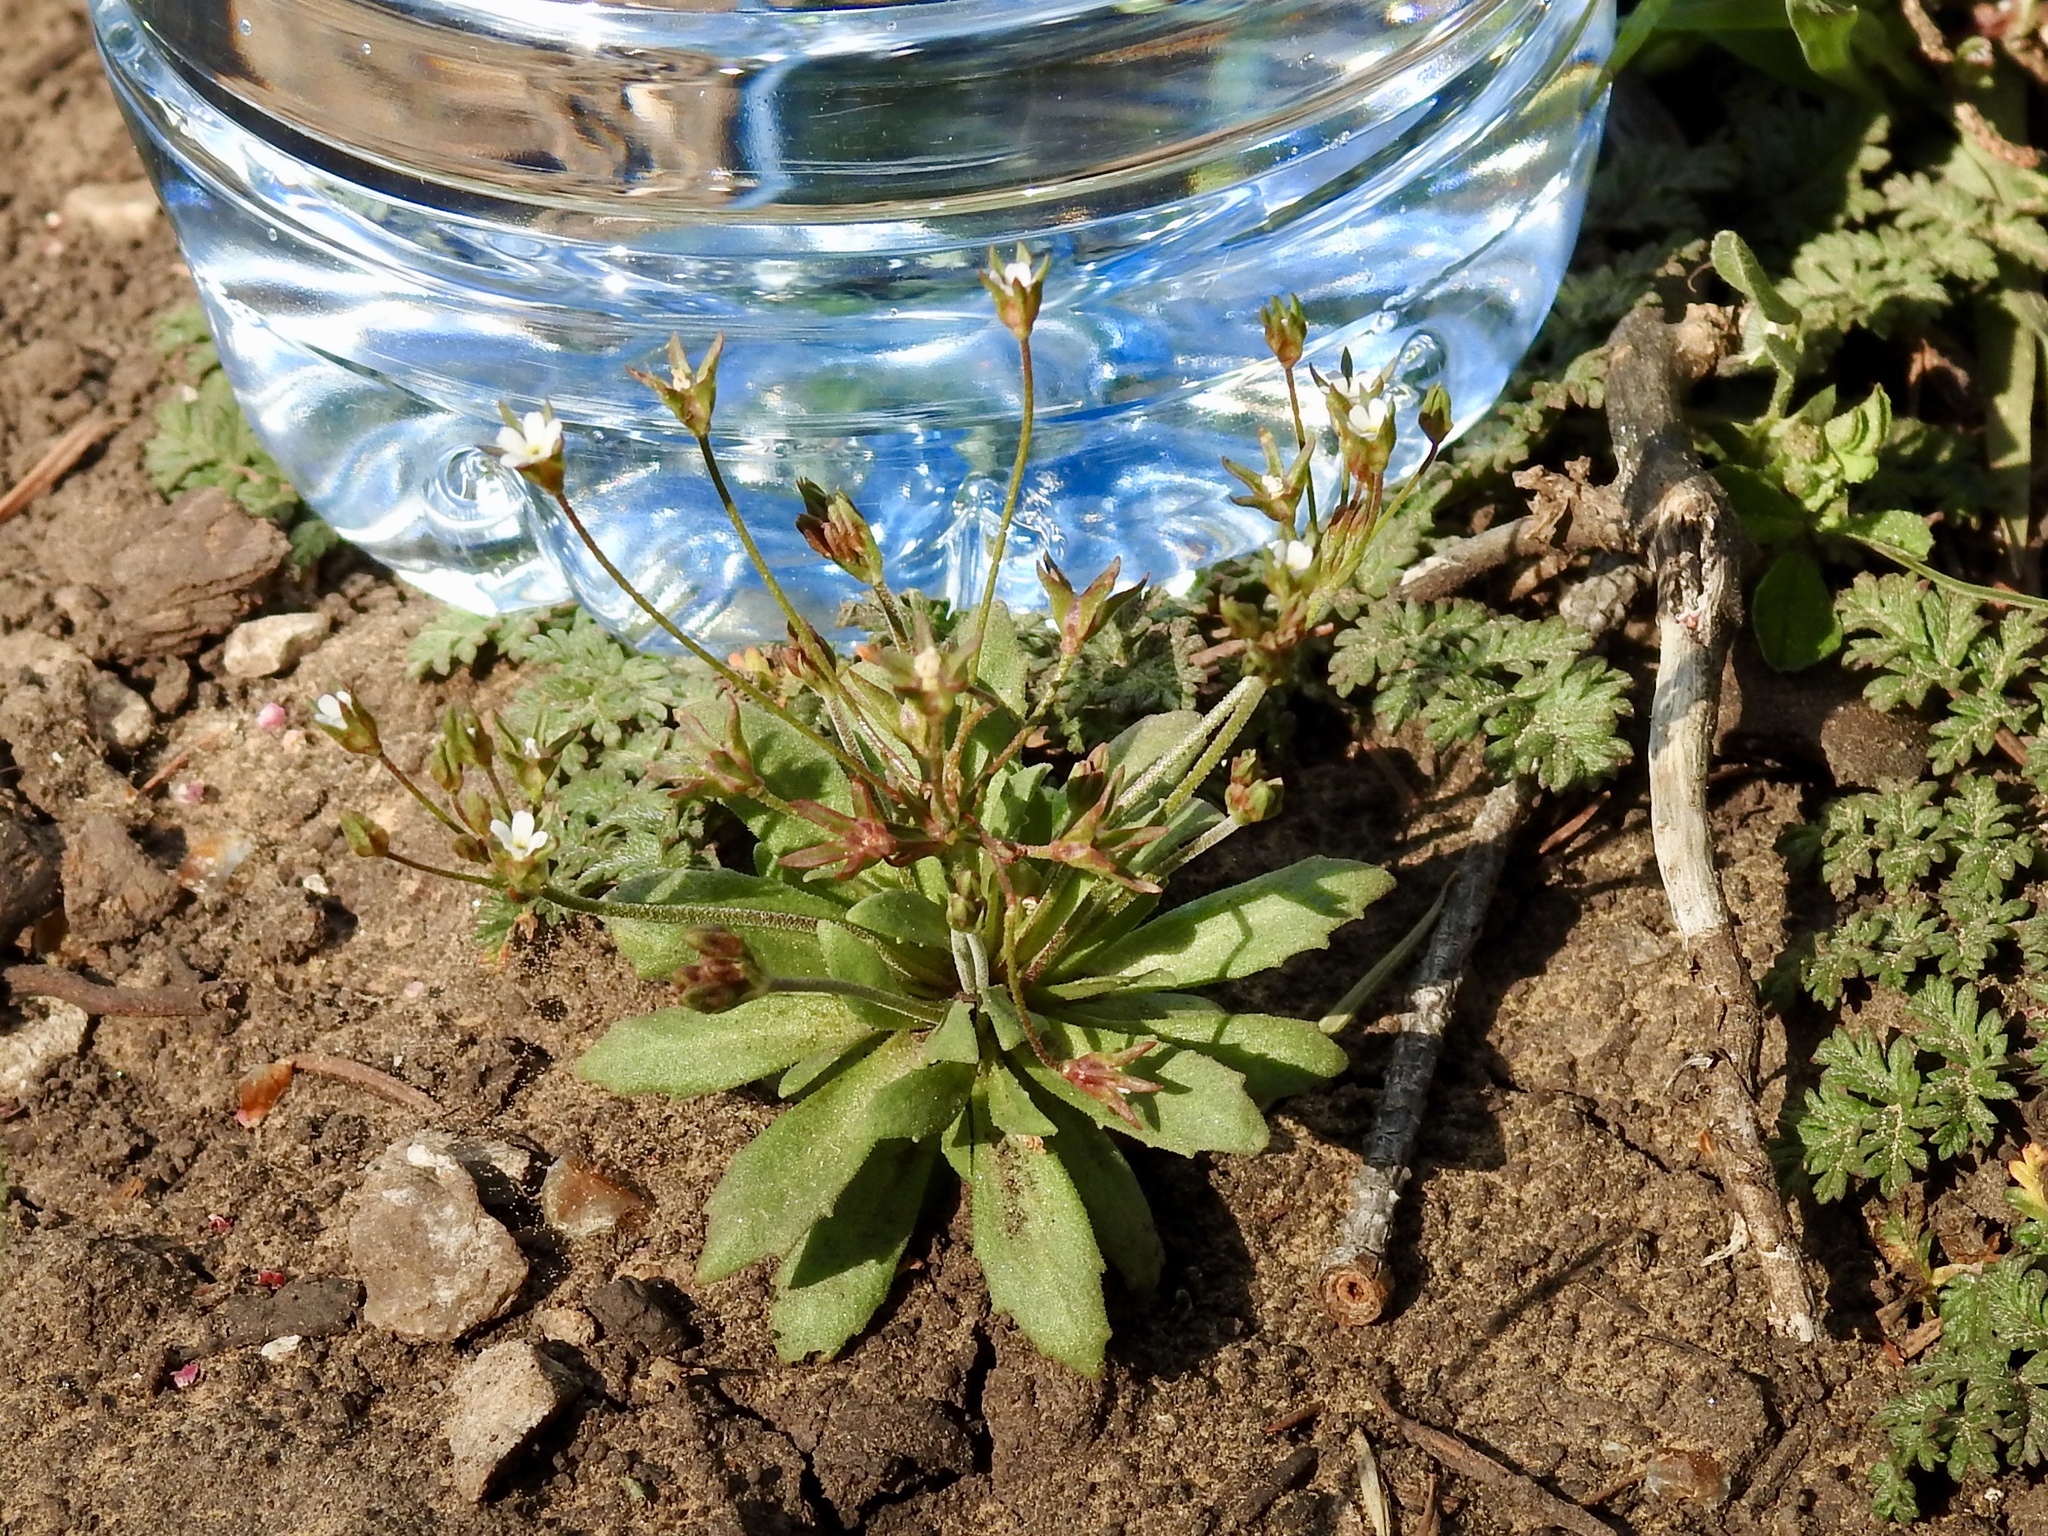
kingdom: Plantae
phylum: Tracheophyta
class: Magnoliopsida
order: Ericales
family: Primulaceae
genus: Androsace
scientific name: Androsace septentrionalis
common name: Hairy northern fairy-candelabra
